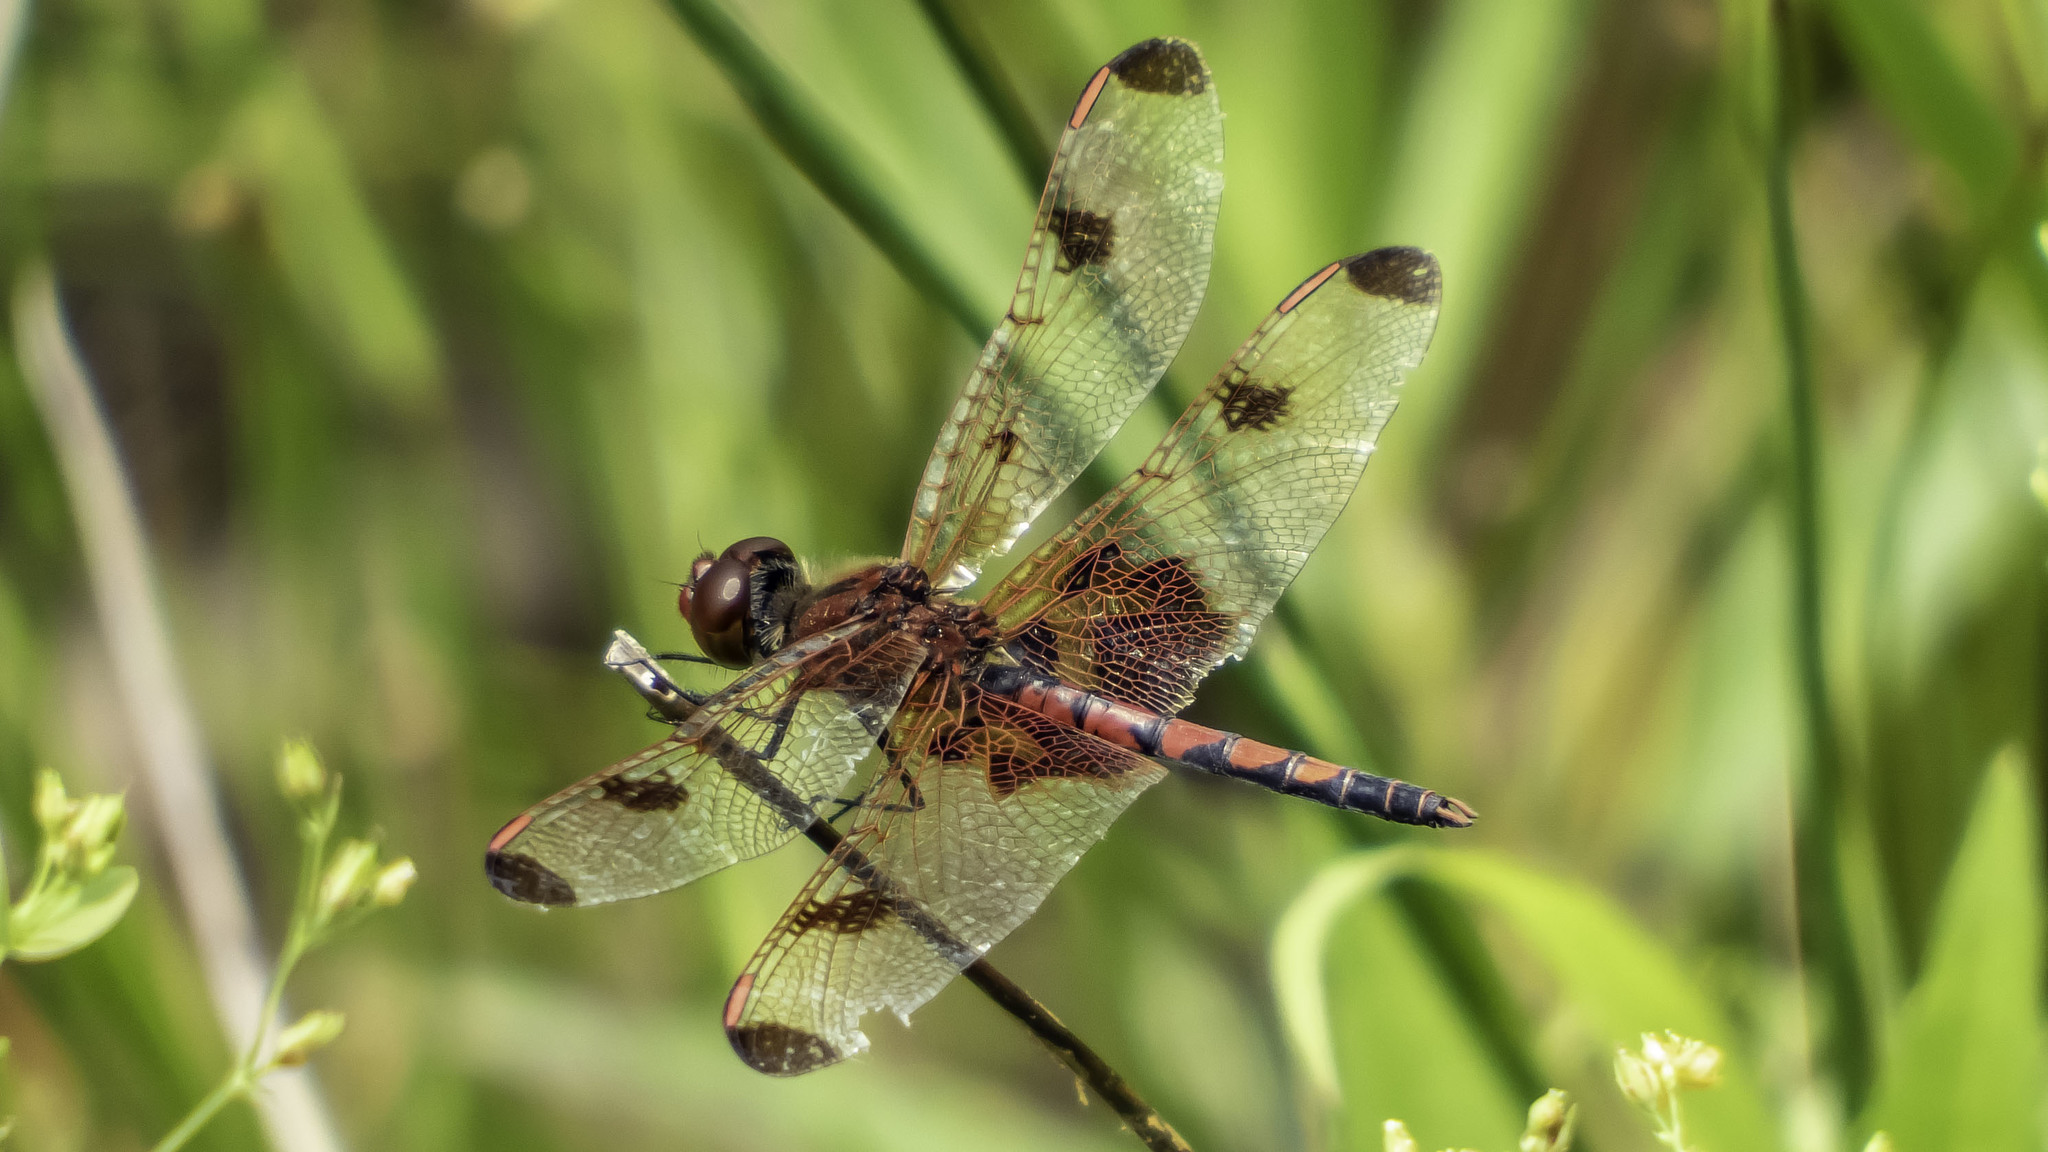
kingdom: Animalia
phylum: Arthropoda
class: Insecta
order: Odonata
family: Libellulidae
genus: Celithemis
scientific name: Celithemis elisa
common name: Calico pennant
